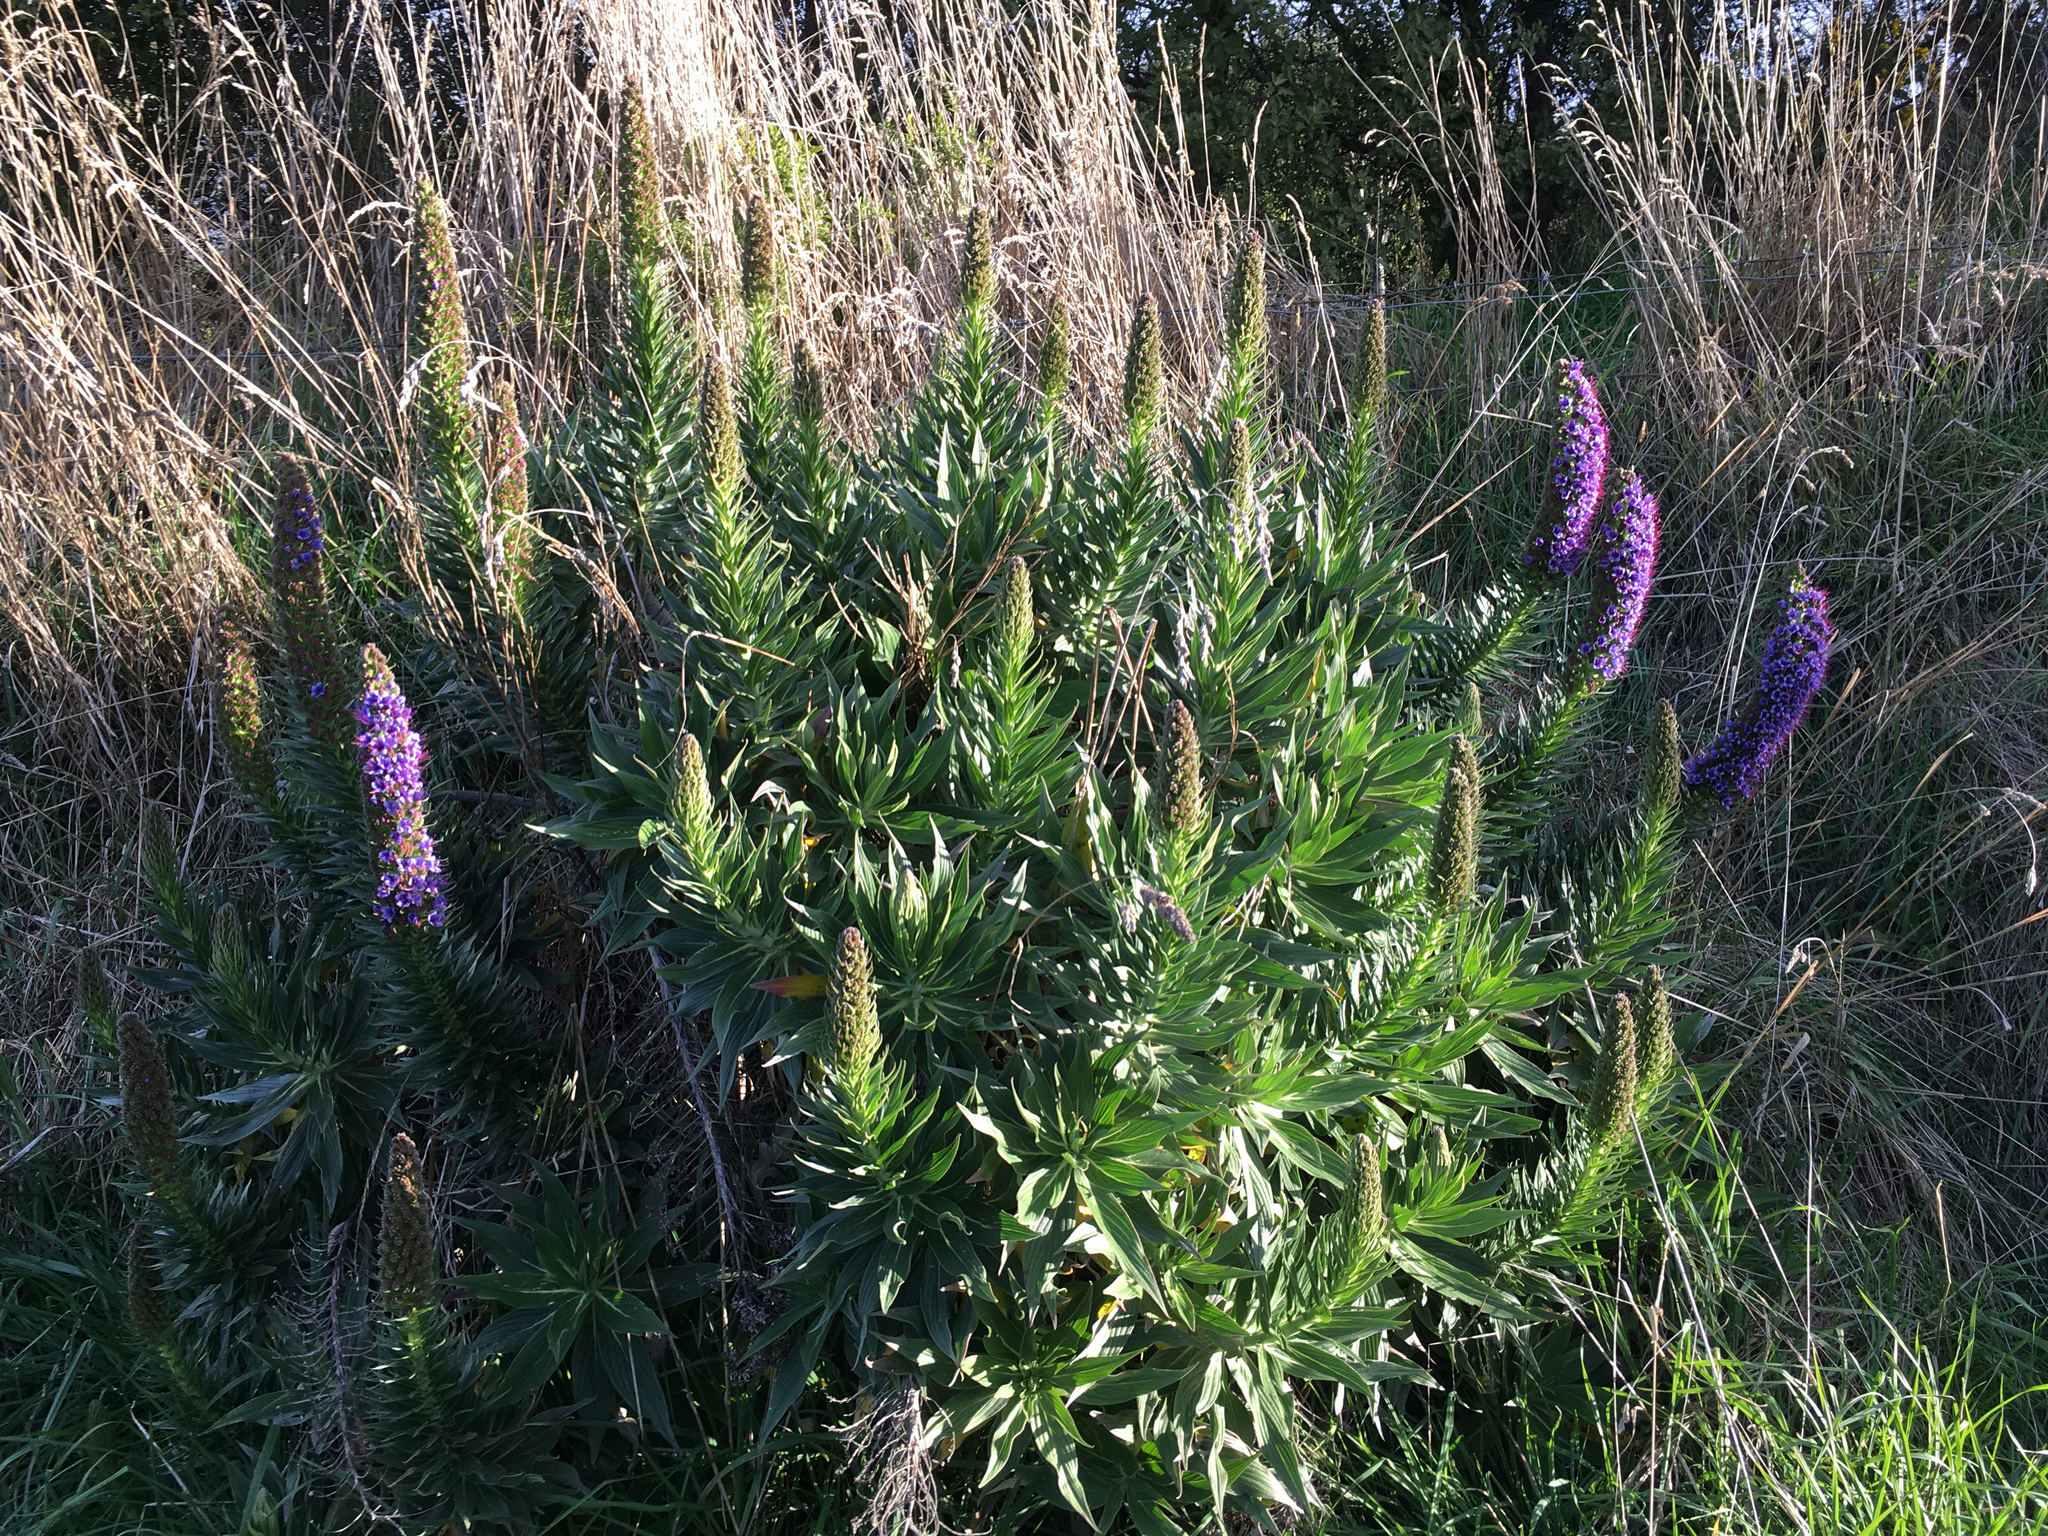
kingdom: Plantae
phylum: Tracheophyta
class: Magnoliopsida
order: Boraginales
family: Boraginaceae
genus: Echium
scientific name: Echium candicans
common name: Pride of madeira
